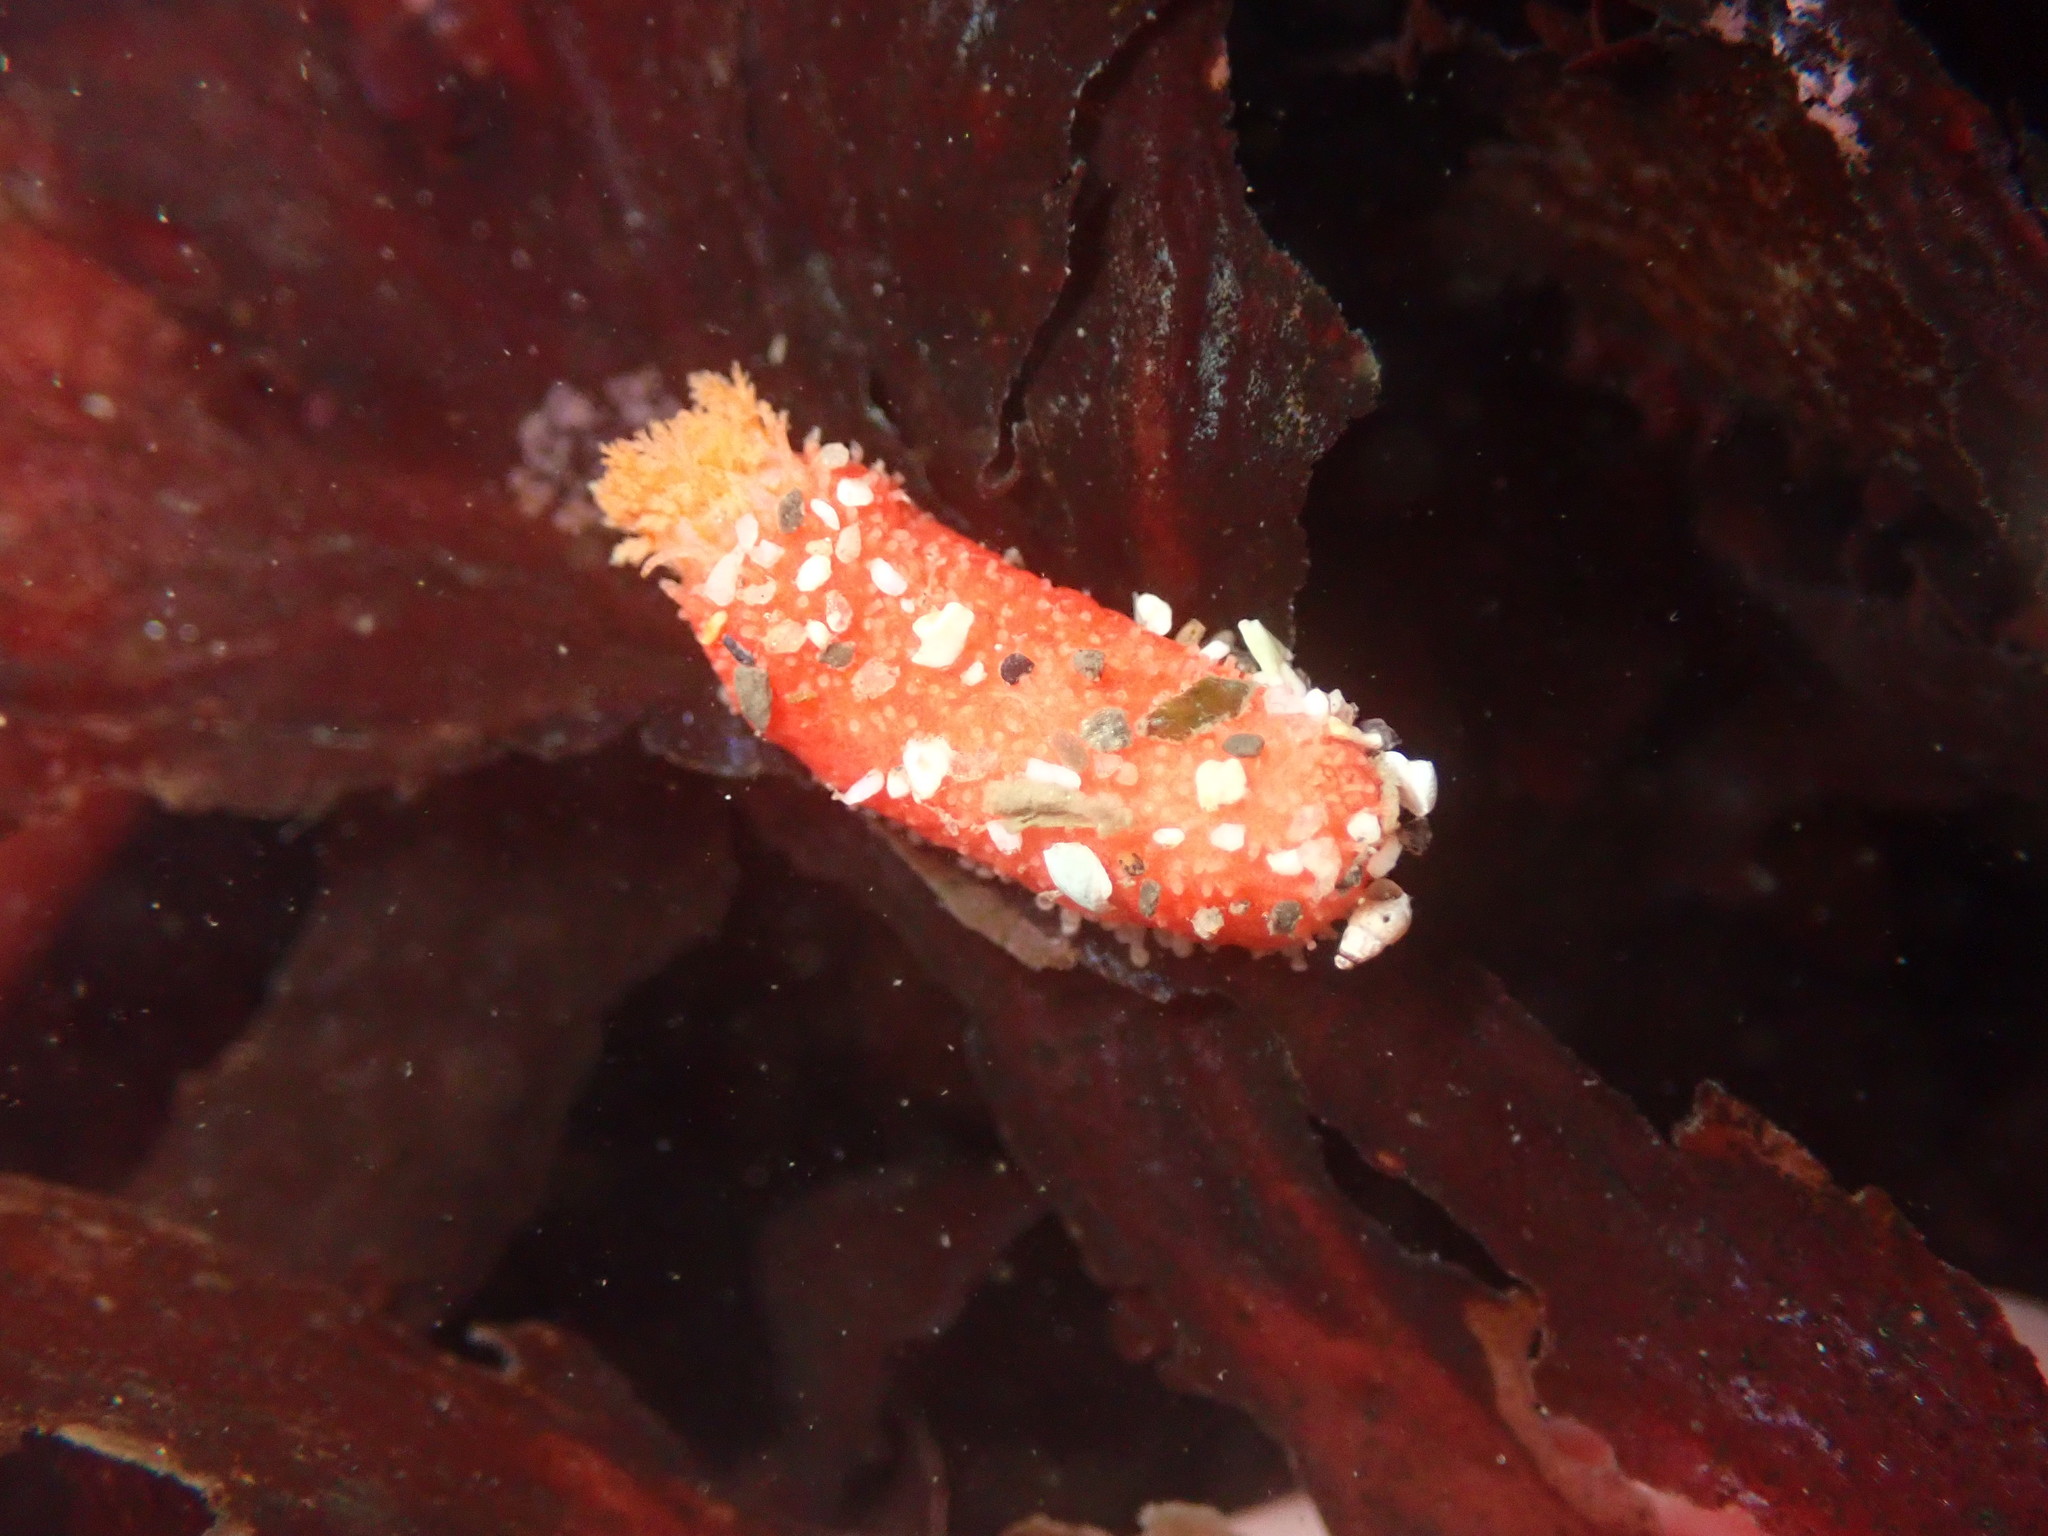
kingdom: Animalia
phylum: Echinodermata
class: Holothuroidea
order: Dendrochirotida
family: Psolidae
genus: Lissothuria
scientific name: Lissothuria nutriens
